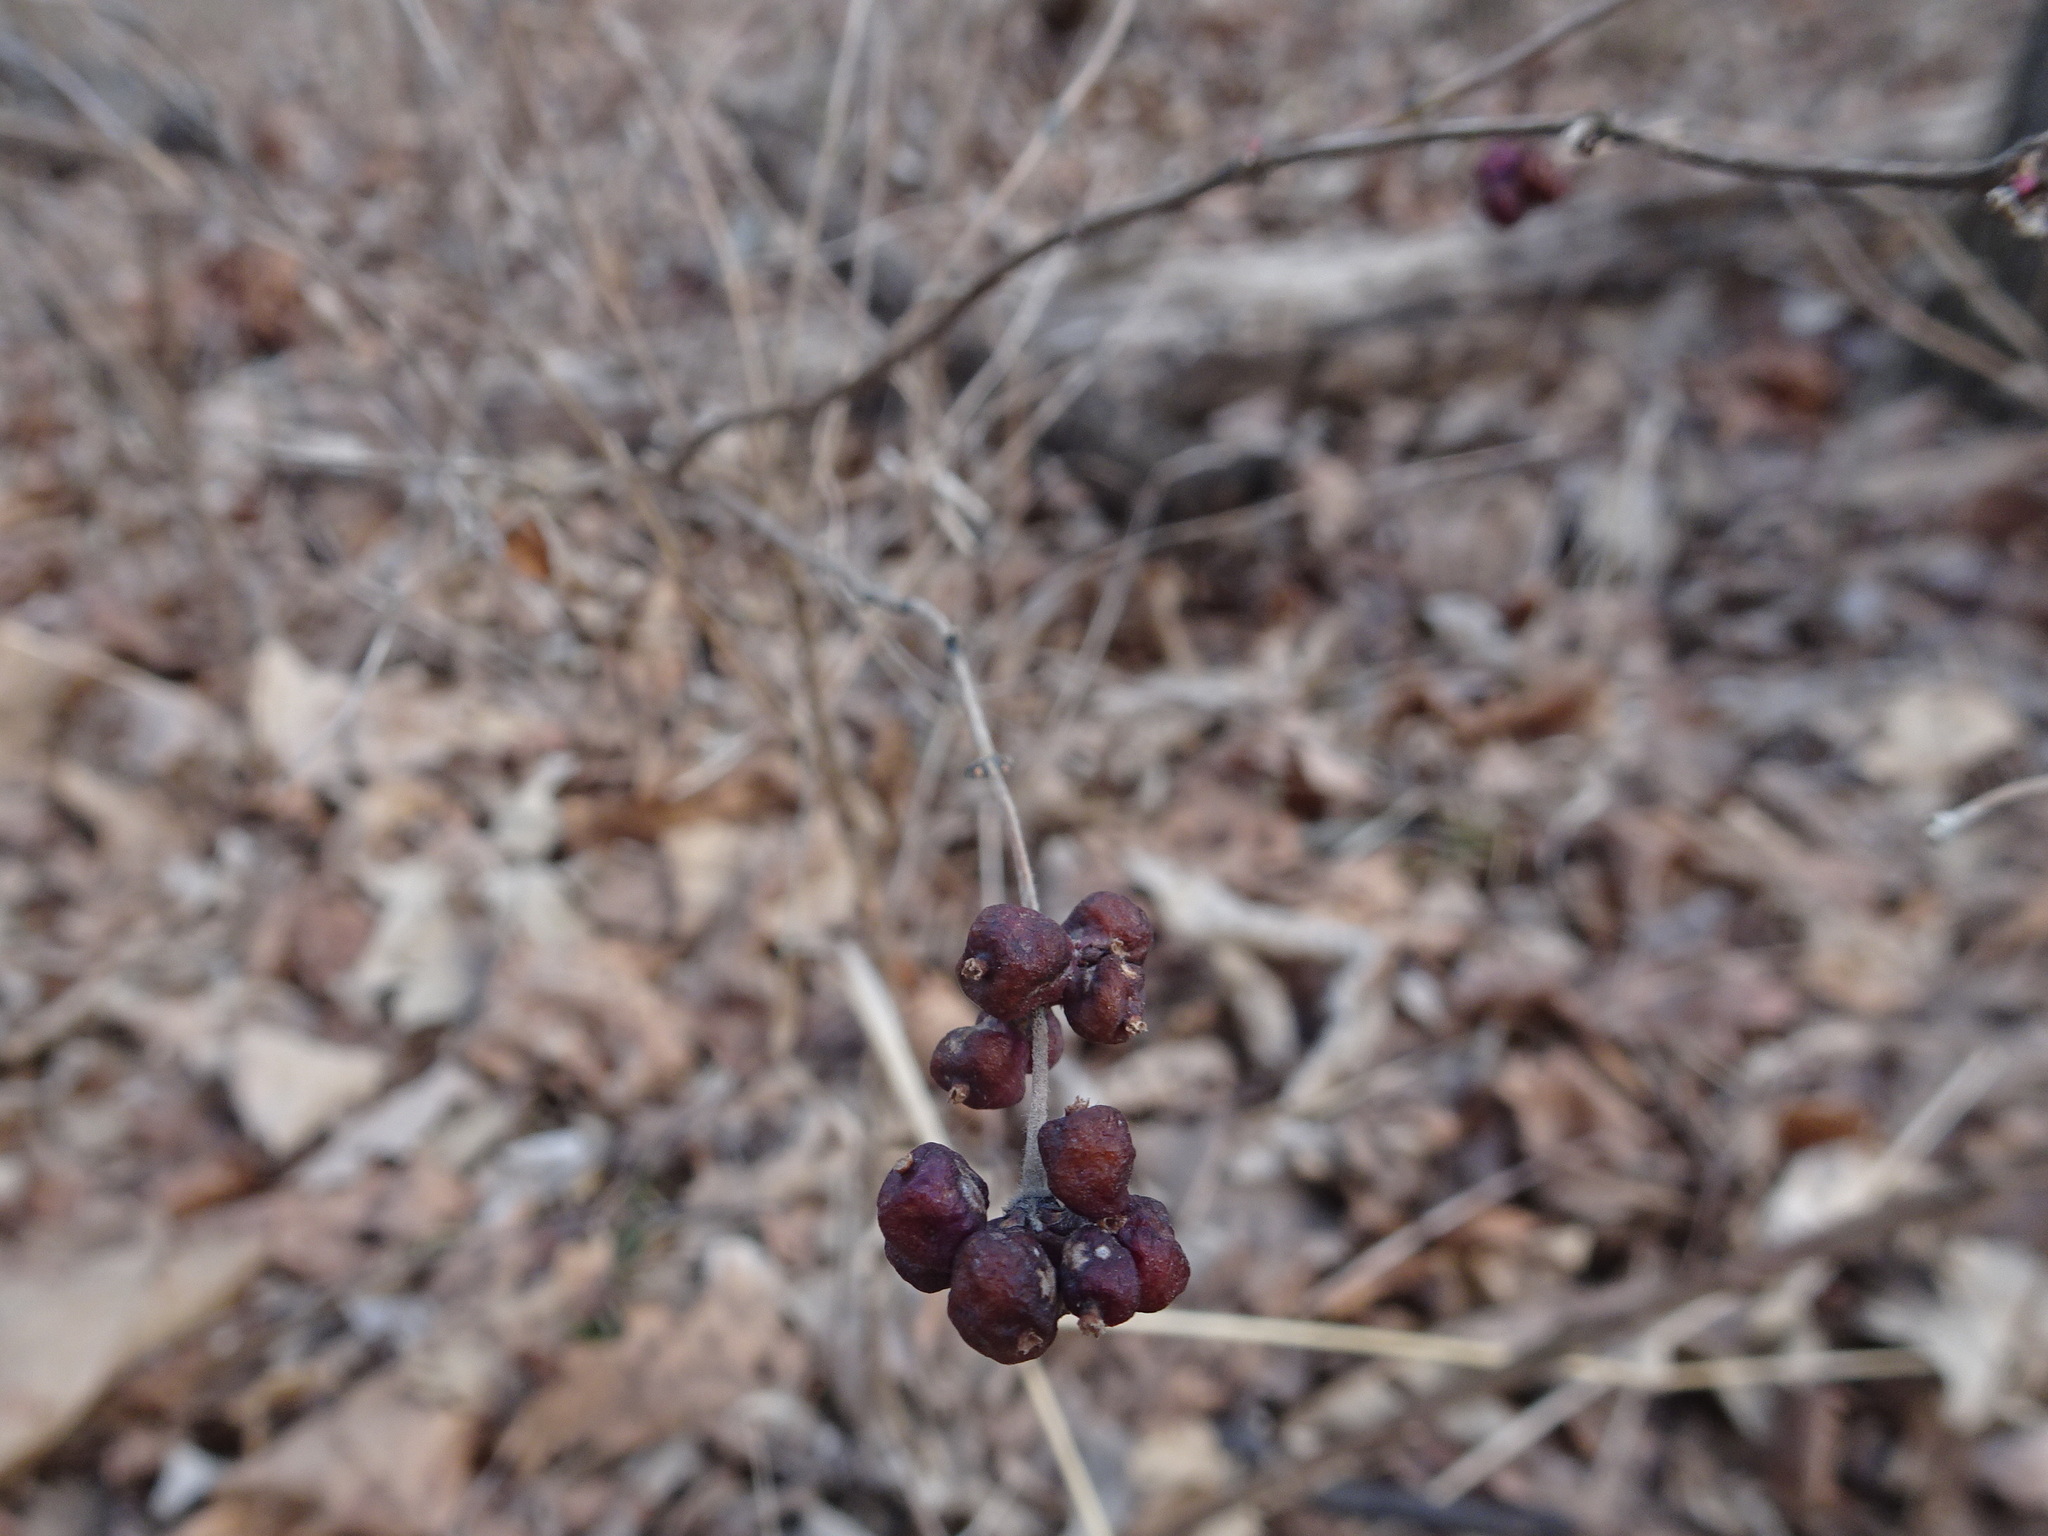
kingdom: Plantae
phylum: Tracheophyta
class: Magnoliopsida
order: Dipsacales
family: Caprifoliaceae
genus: Symphoricarpos
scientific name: Symphoricarpos orbiculatus
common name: Coralberry
